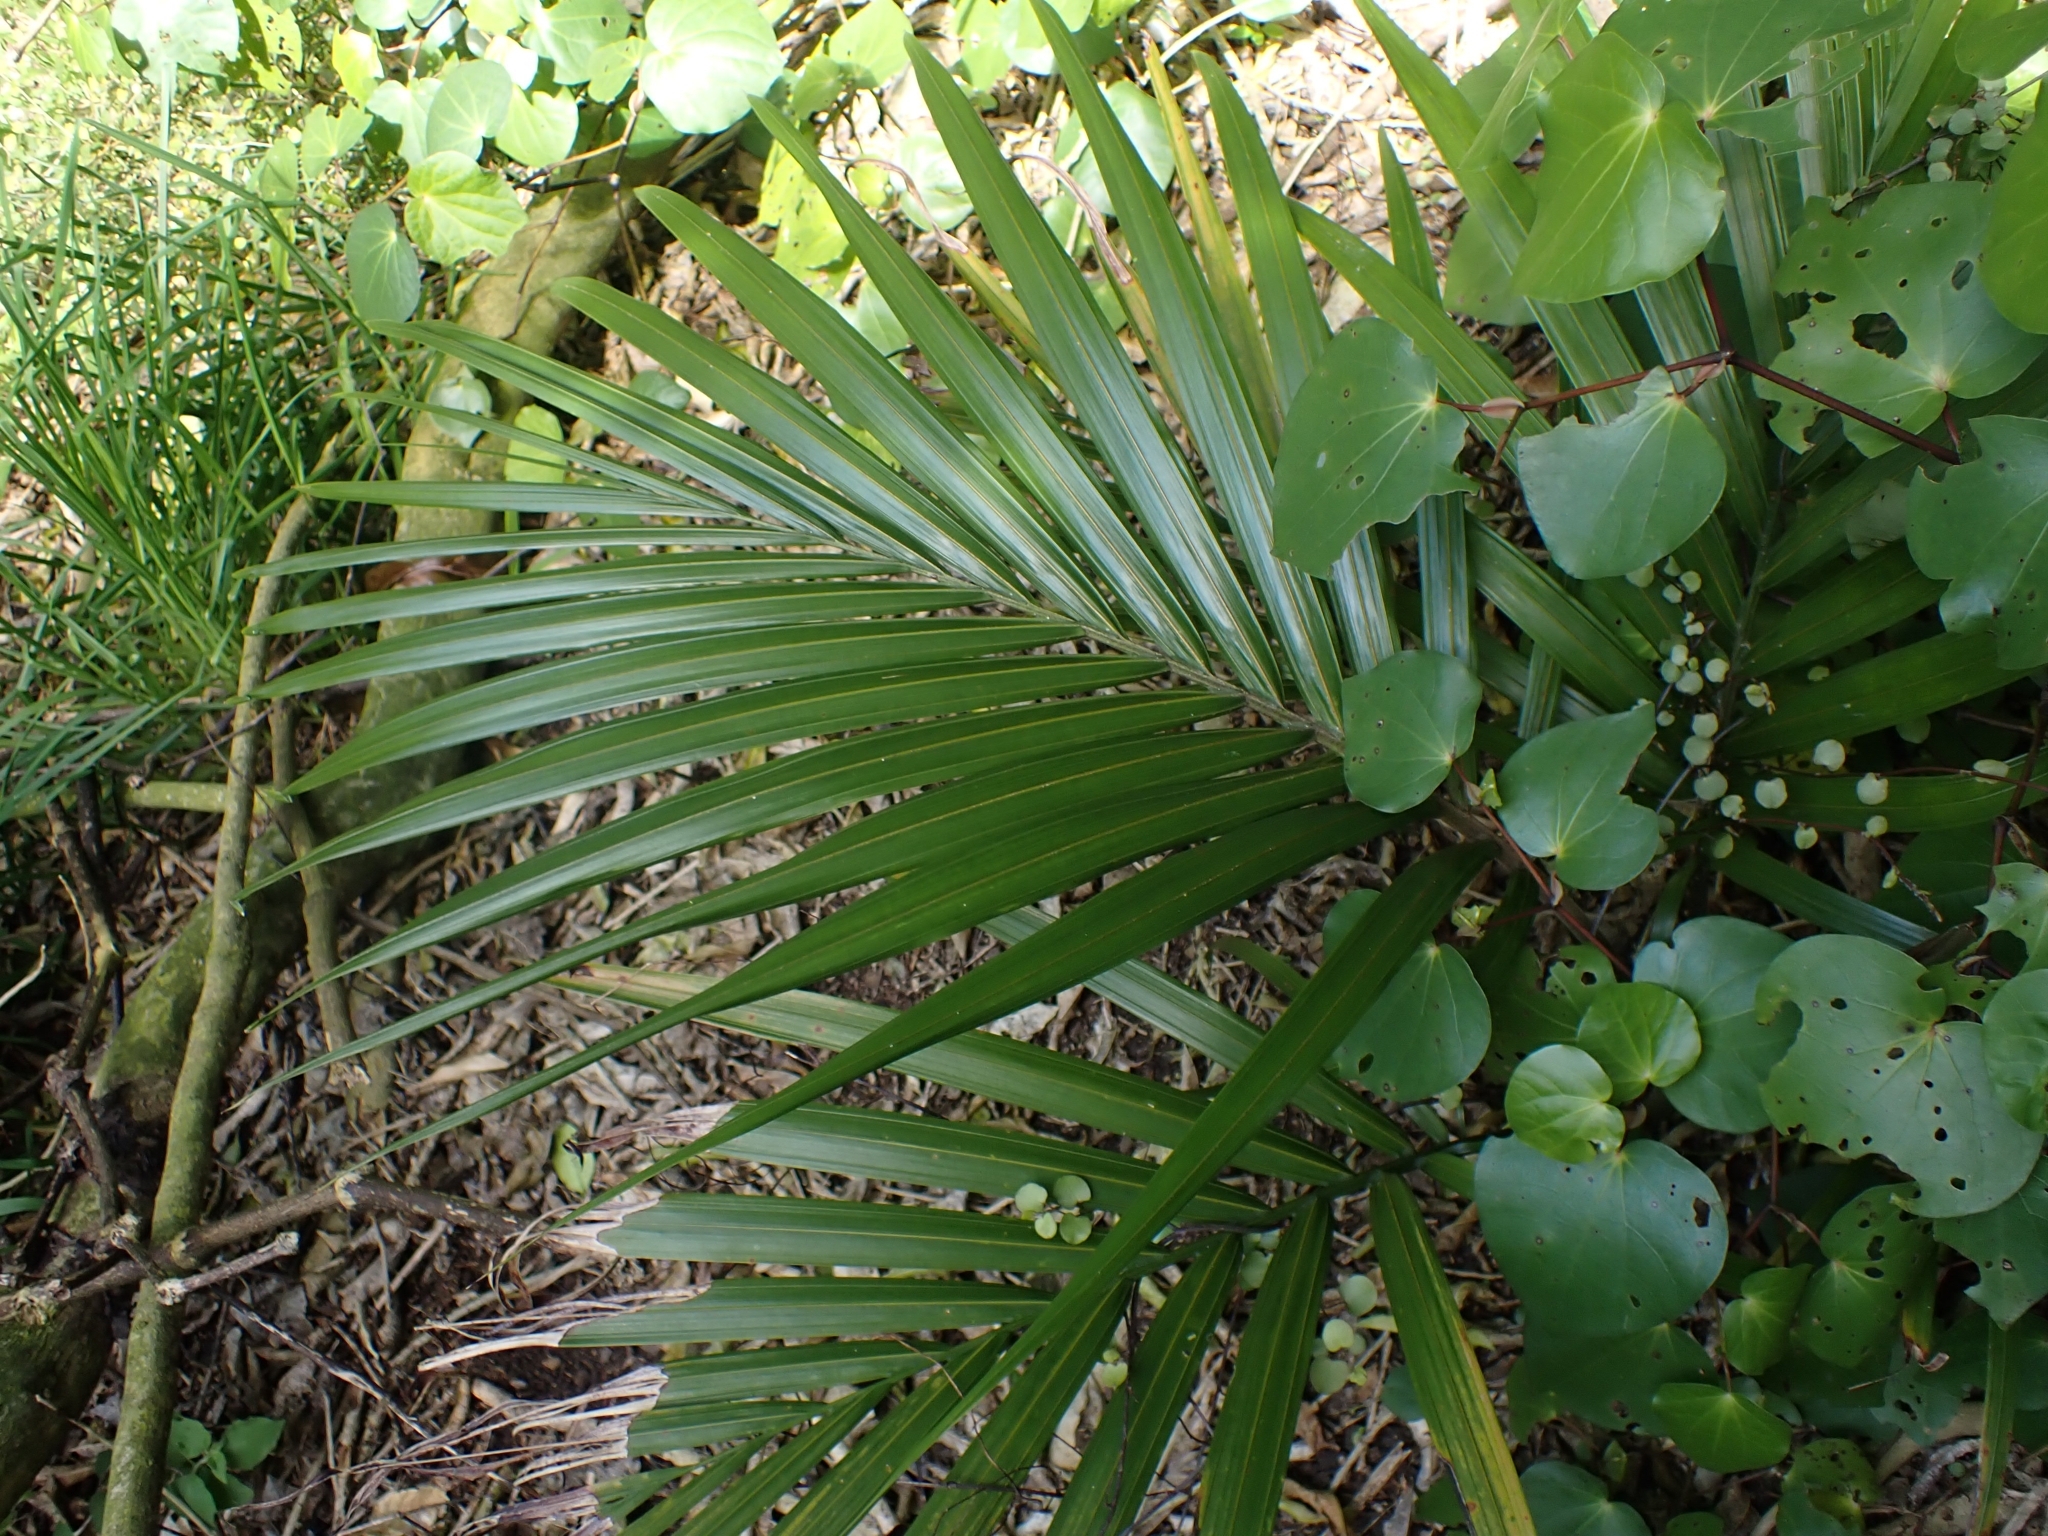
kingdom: Plantae
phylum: Tracheophyta
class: Liliopsida
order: Arecales
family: Arecaceae
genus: Rhopalostylis
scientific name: Rhopalostylis sapida
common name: Feather-duster palm
